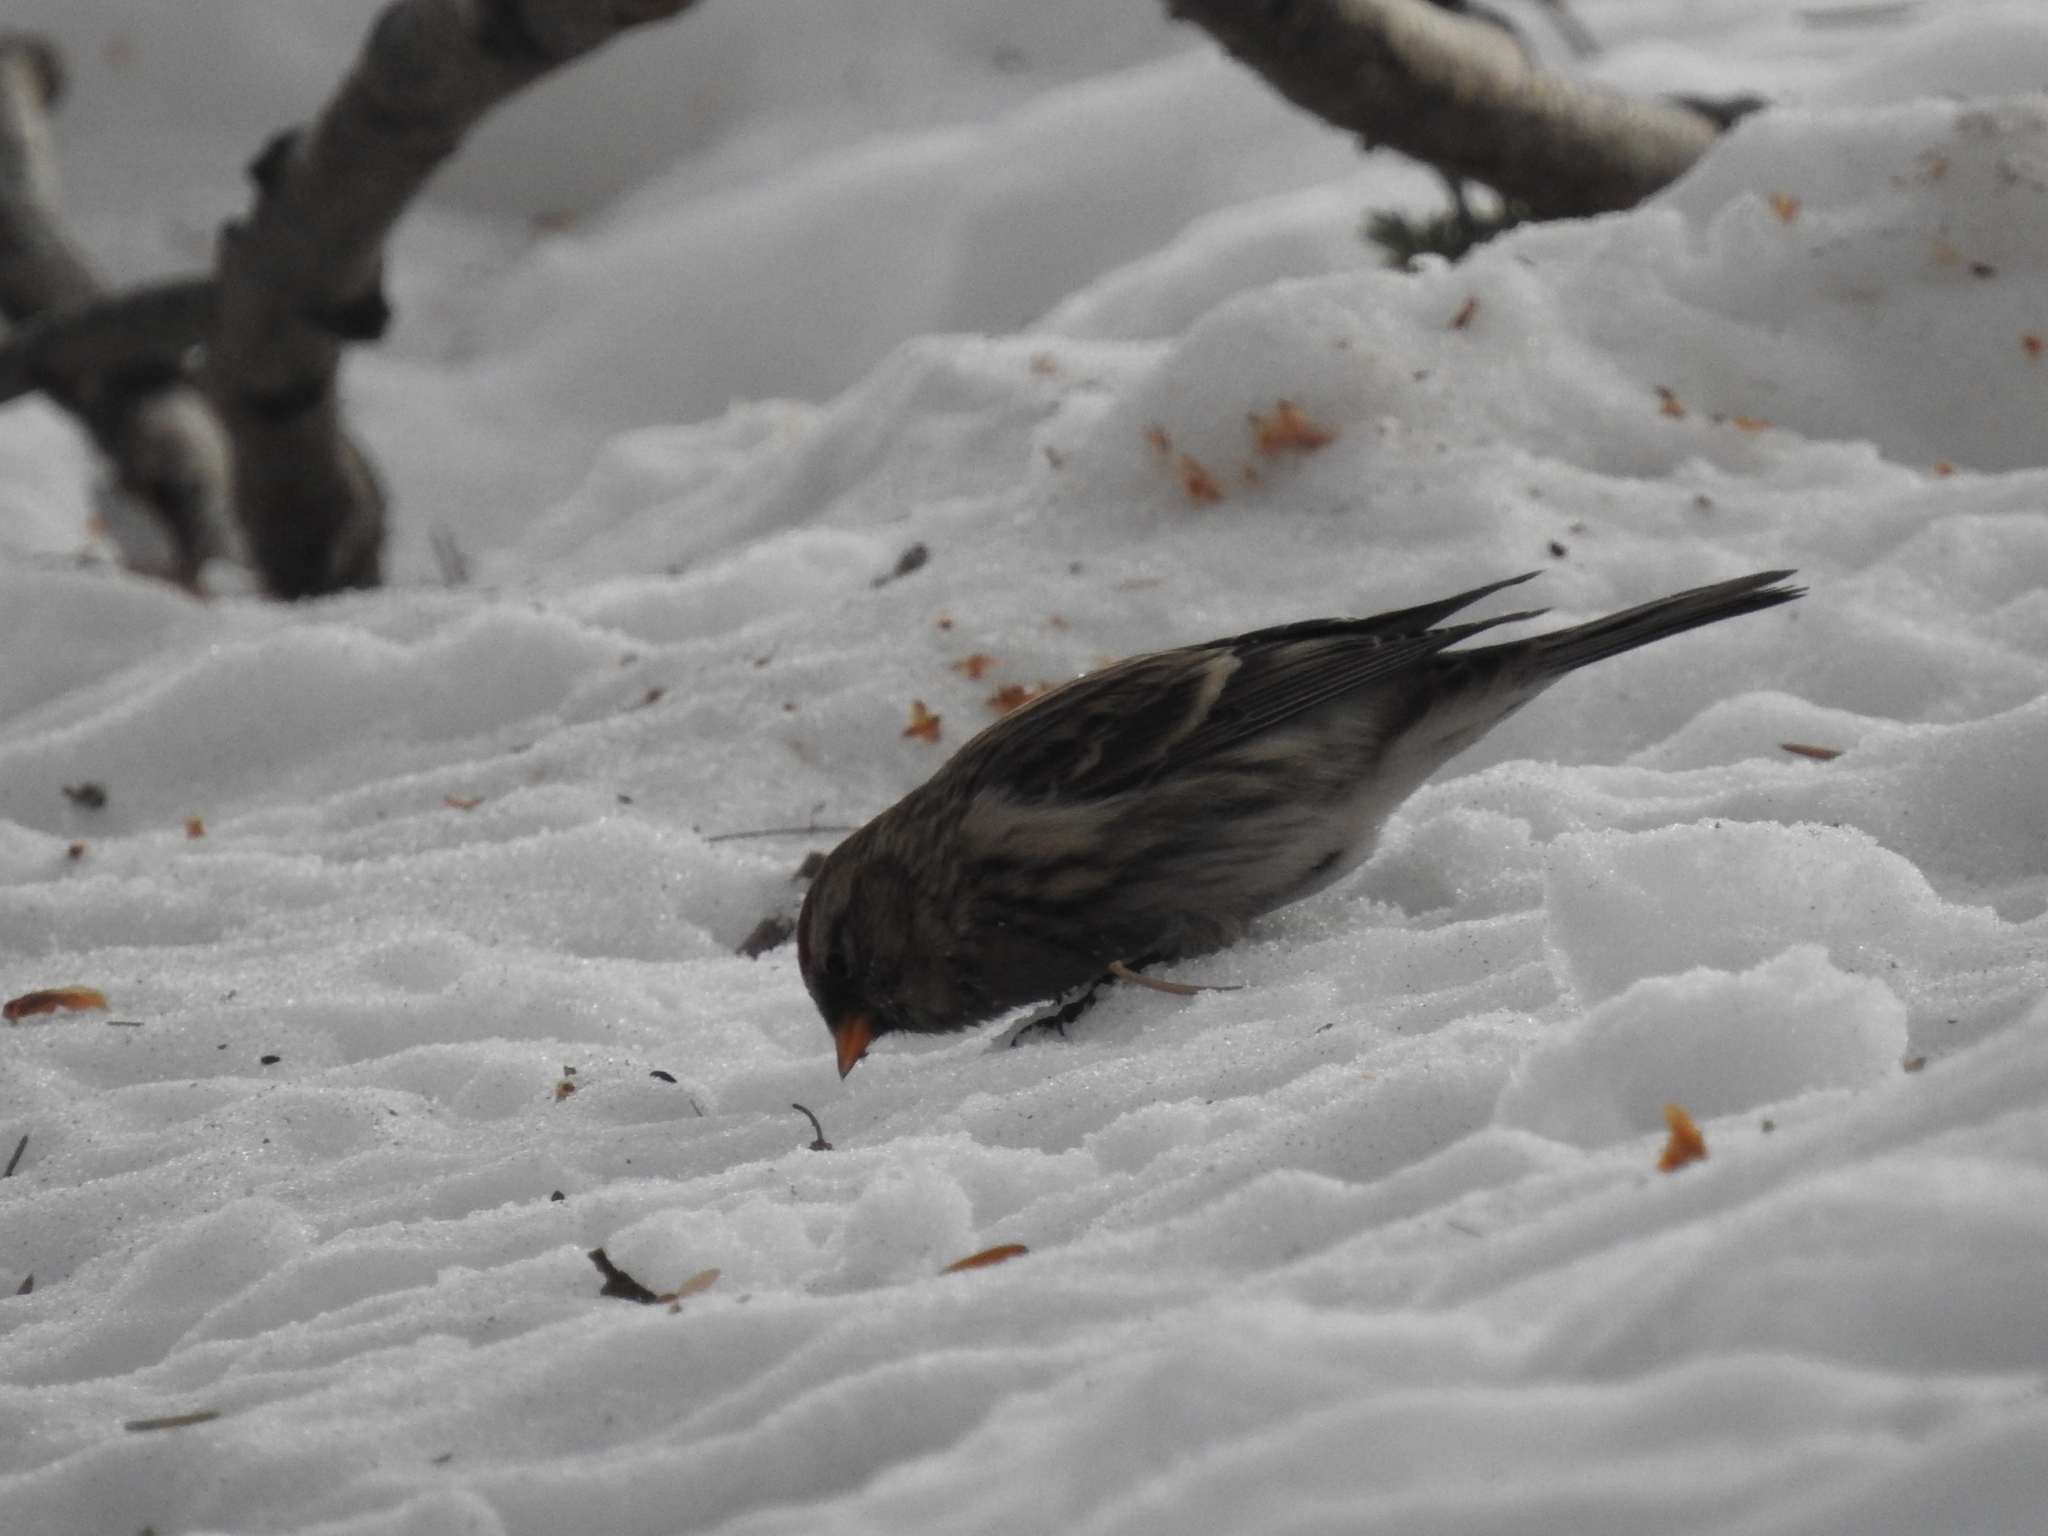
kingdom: Animalia
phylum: Chordata
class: Aves
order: Passeriformes
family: Fringillidae
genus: Acanthis
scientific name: Acanthis flammea
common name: Common redpoll
